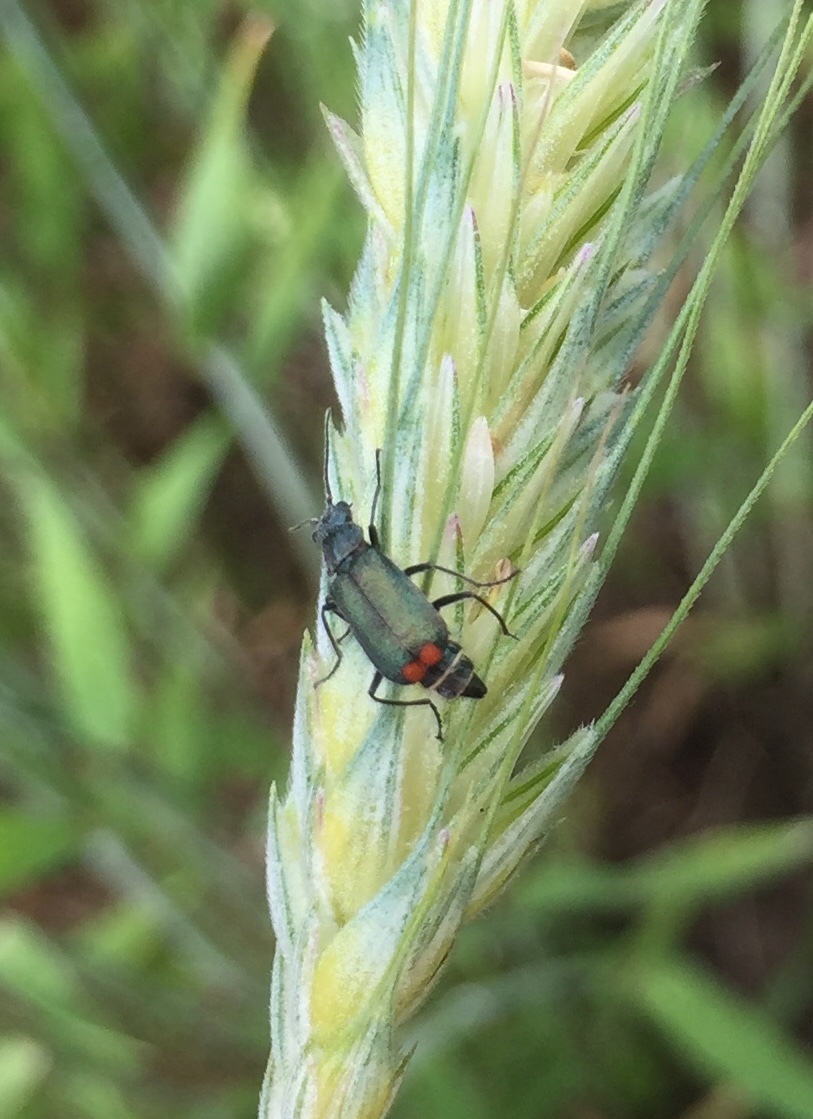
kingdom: Animalia
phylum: Arthropoda
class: Insecta
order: Coleoptera
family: Melyridae
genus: Malachius
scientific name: Malachius bipustulatus
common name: Malachite beetle
